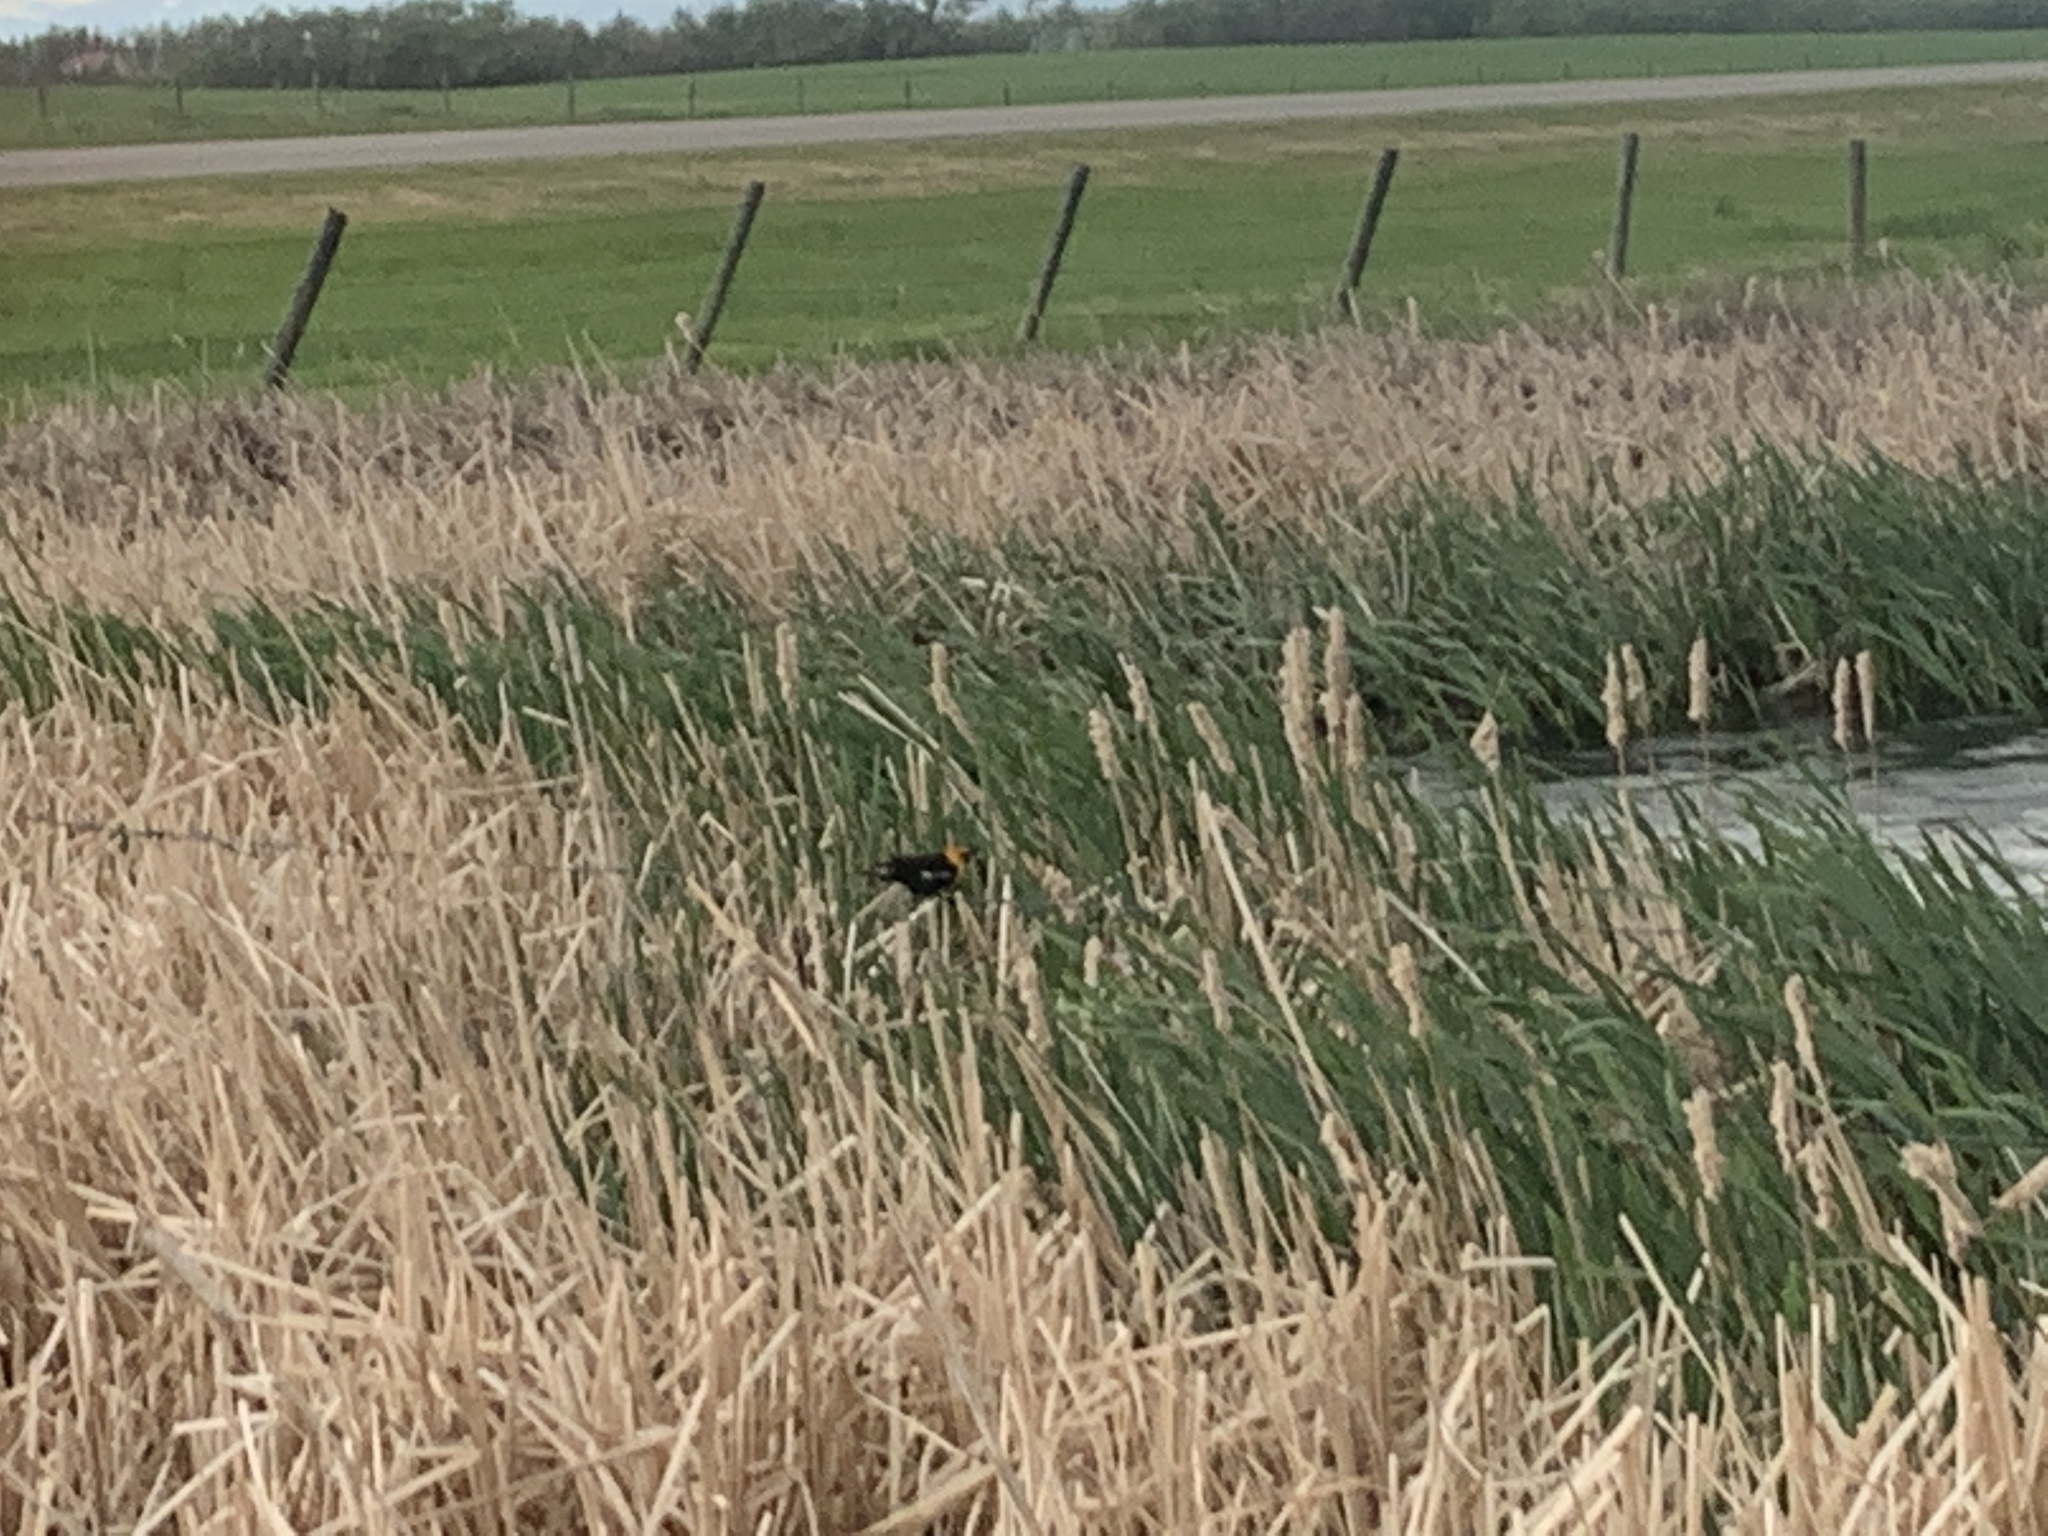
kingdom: Animalia
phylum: Chordata
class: Aves
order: Passeriformes
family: Icteridae
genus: Xanthocephalus
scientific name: Xanthocephalus xanthocephalus
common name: Yellow-headed blackbird
